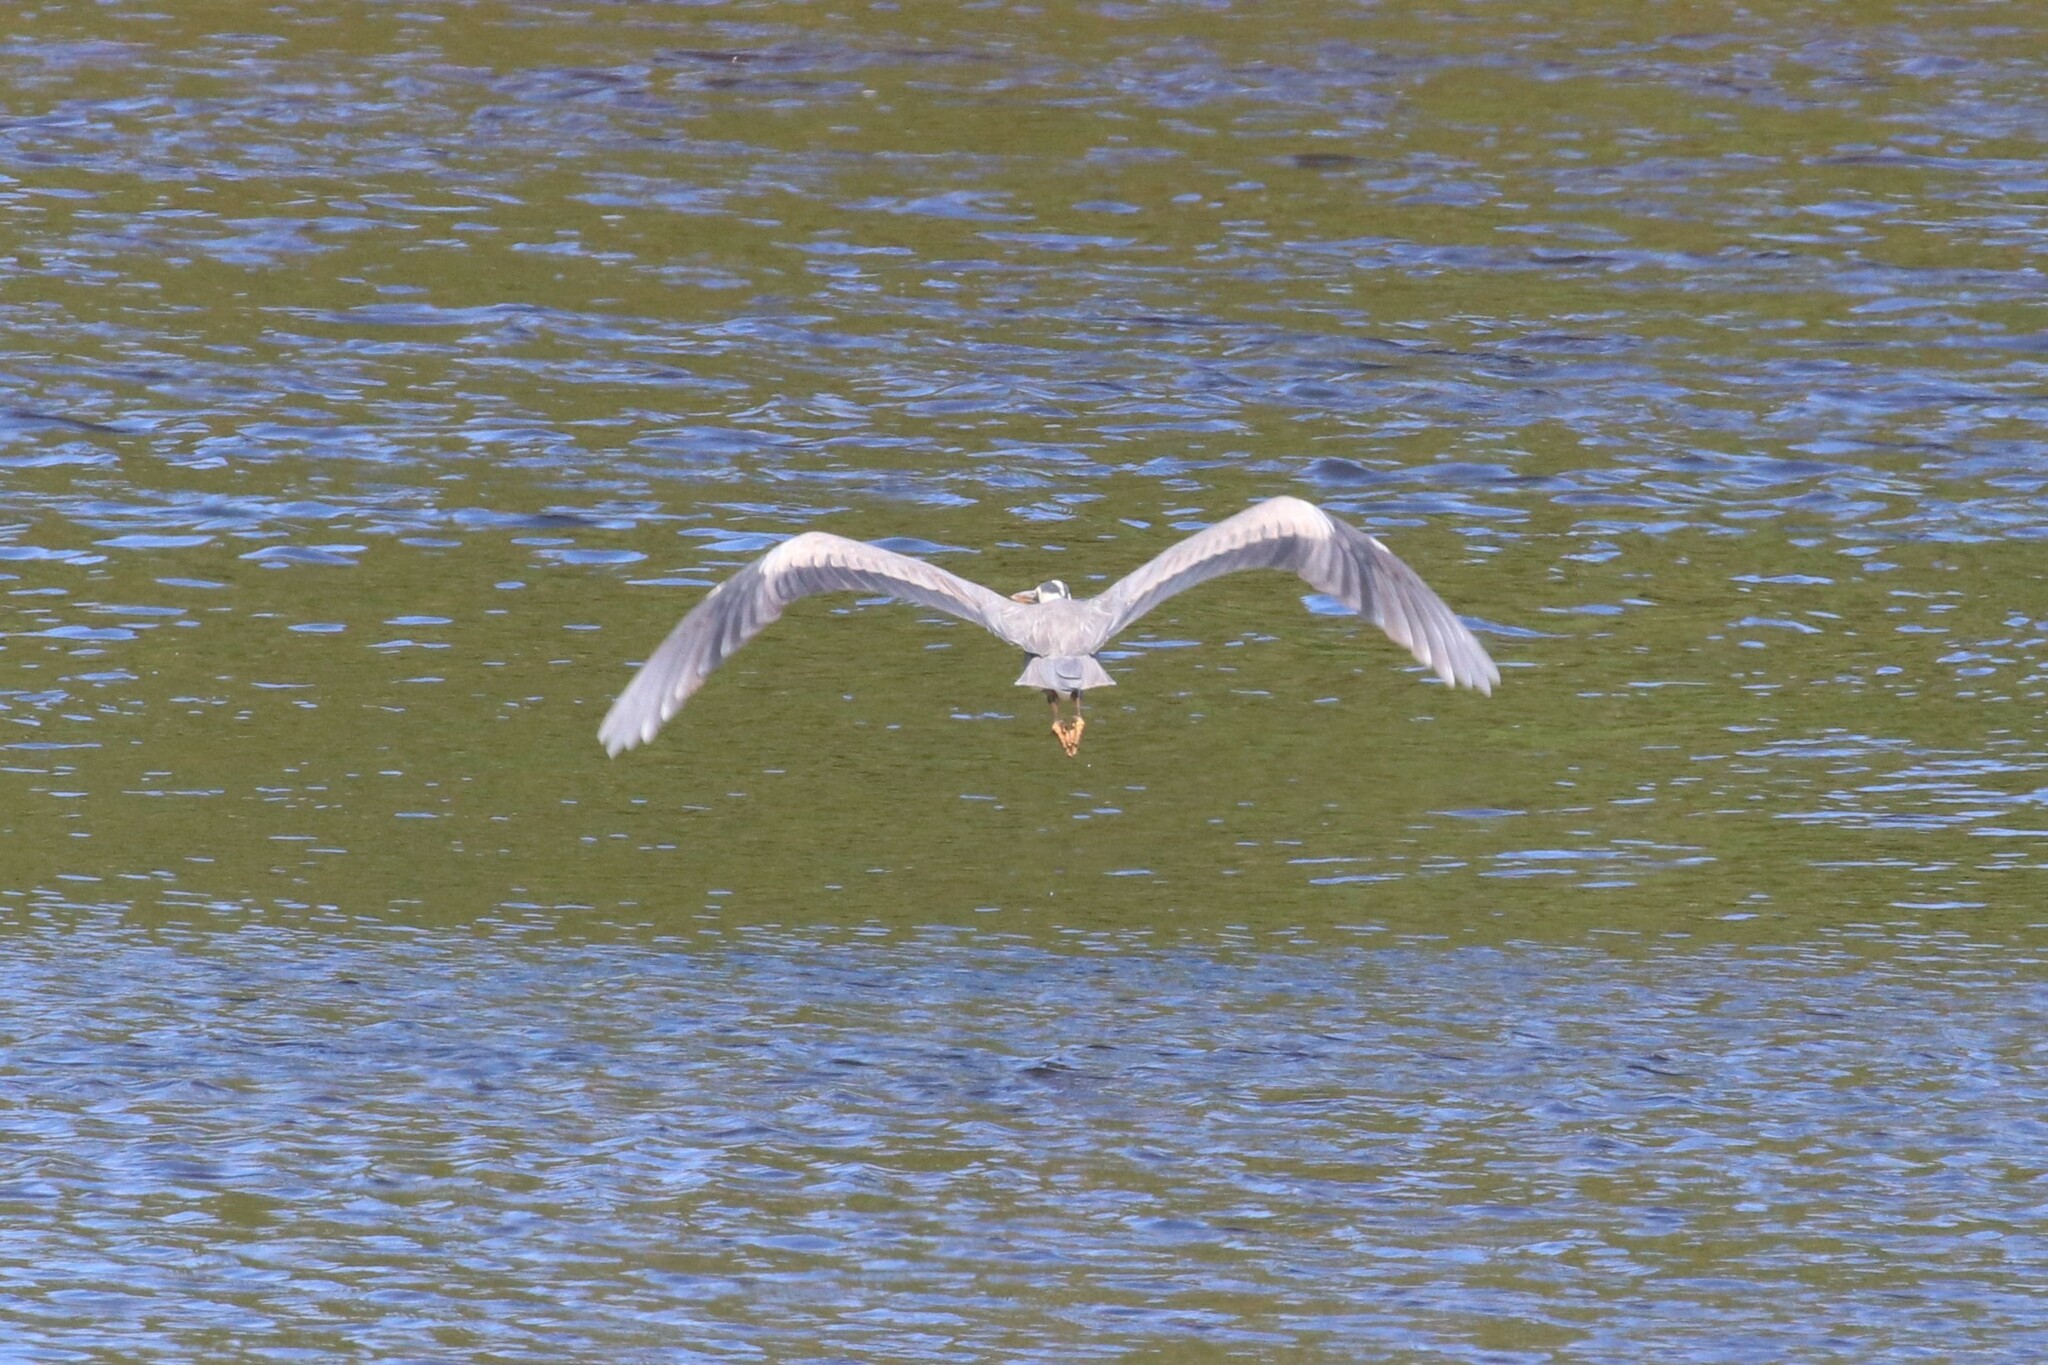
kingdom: Animalia
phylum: Chordata
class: Aves
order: Pelecaniformes
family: Ardeidae
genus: Ardea
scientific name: Ardea cinerea
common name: Grey heron
